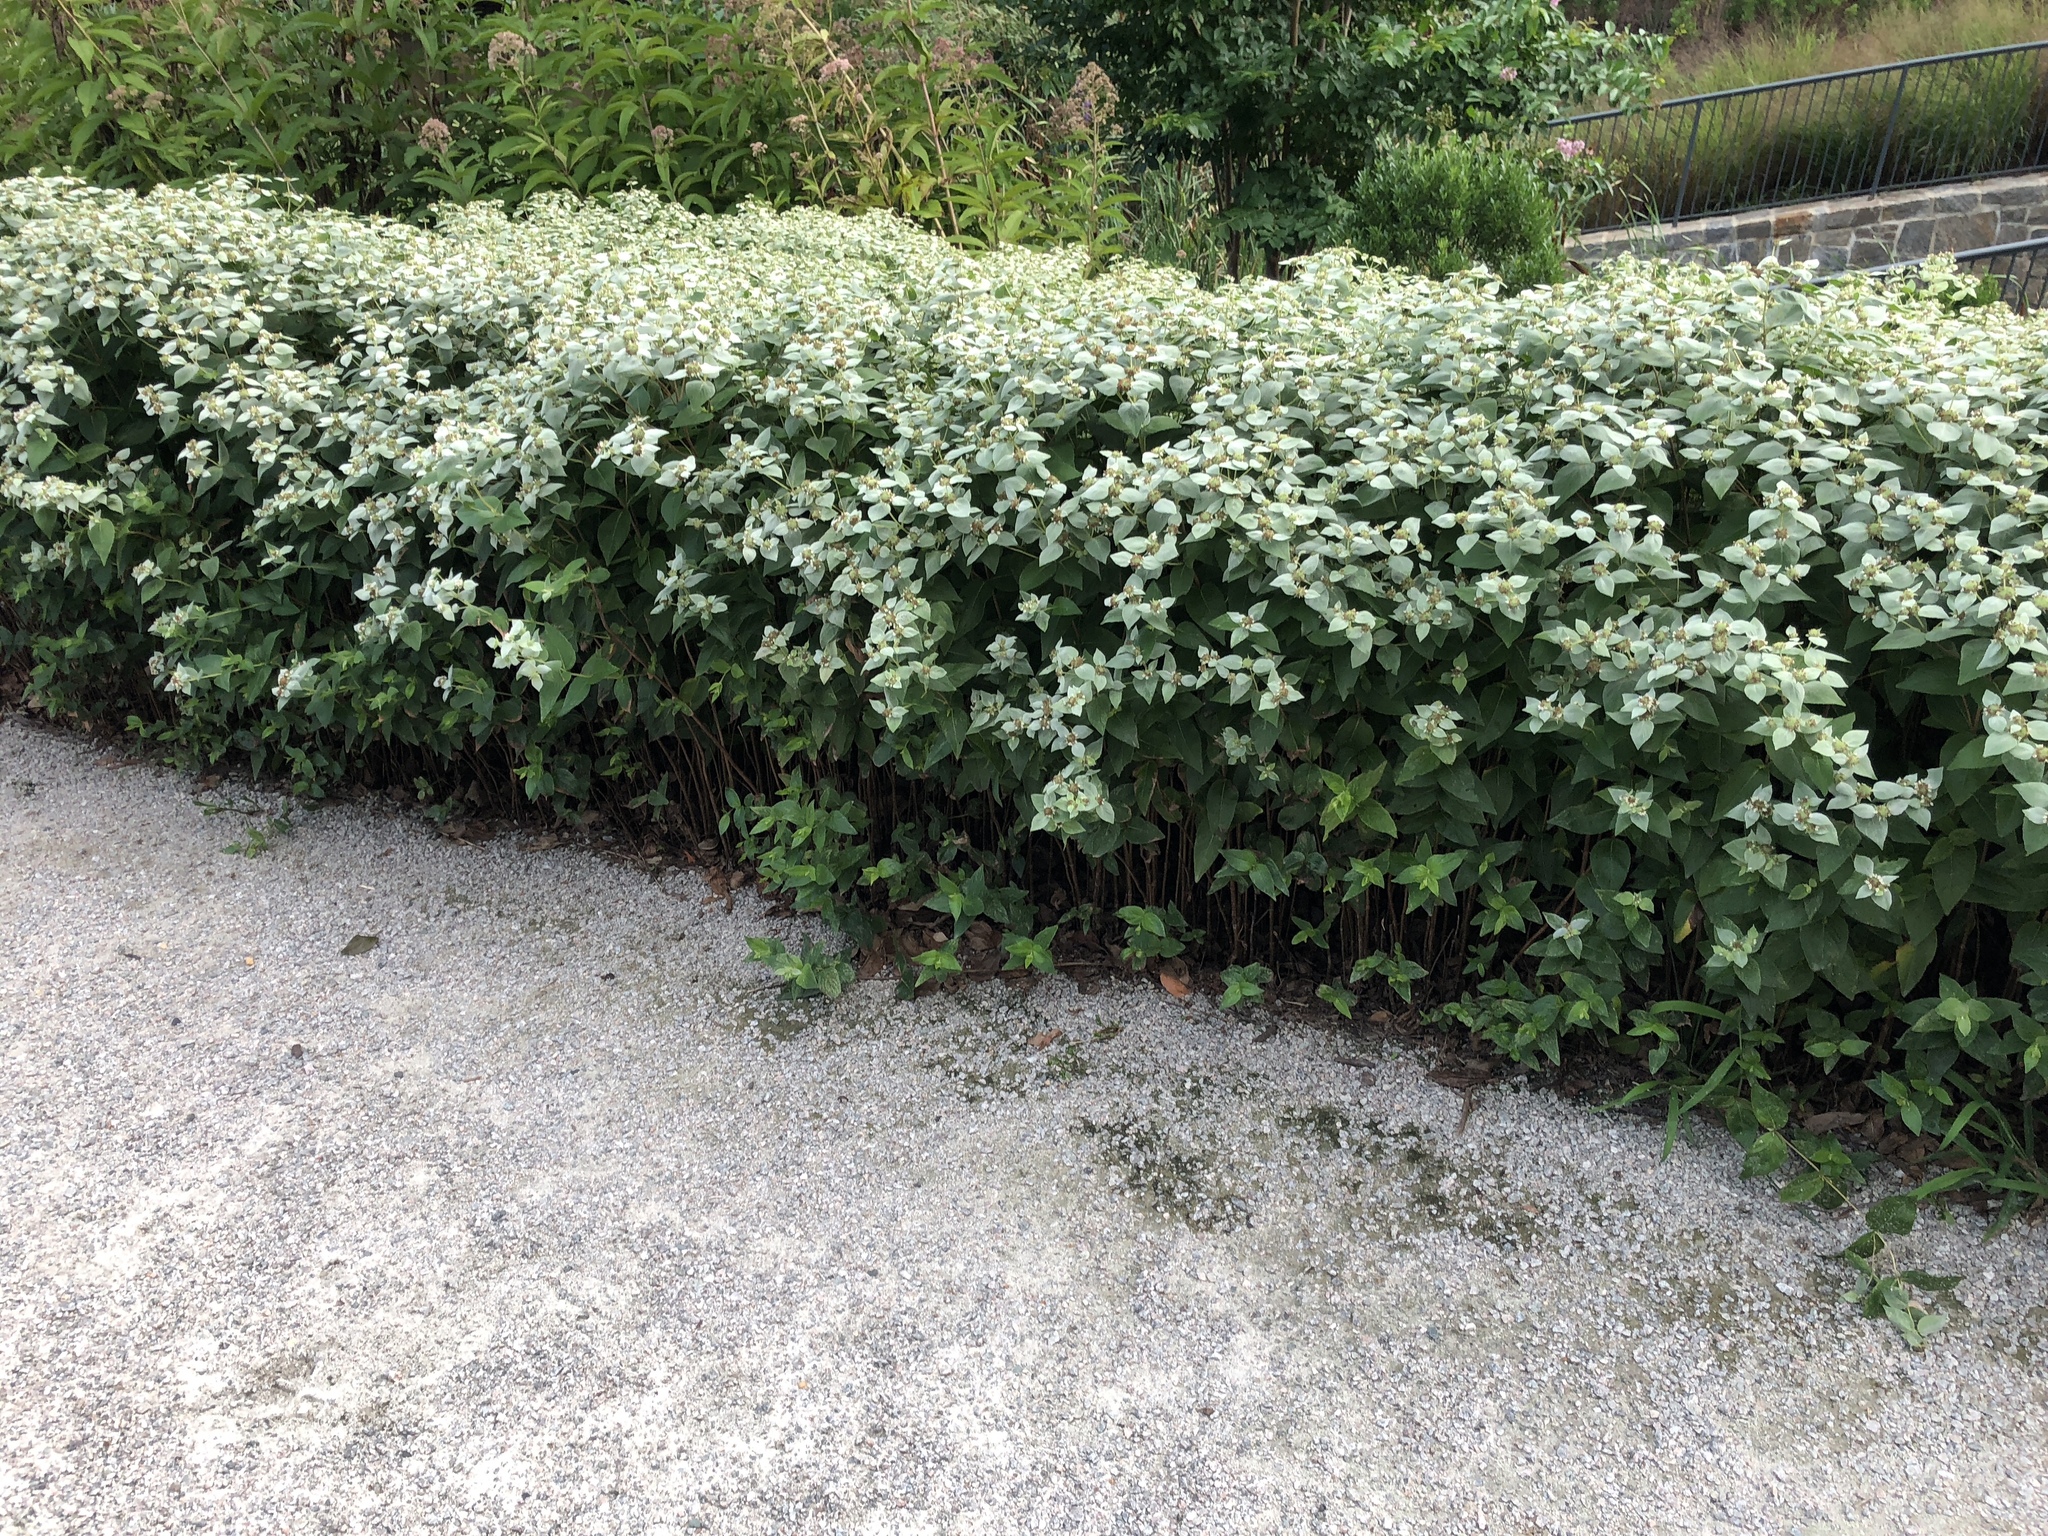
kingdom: Plantae
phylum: Tracheophyta
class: Magnoliopsida
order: Lamiales
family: Lamiaceae
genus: Pycnanthemum
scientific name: Pycnanthemum muticum
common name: Blunt mountain-mint
